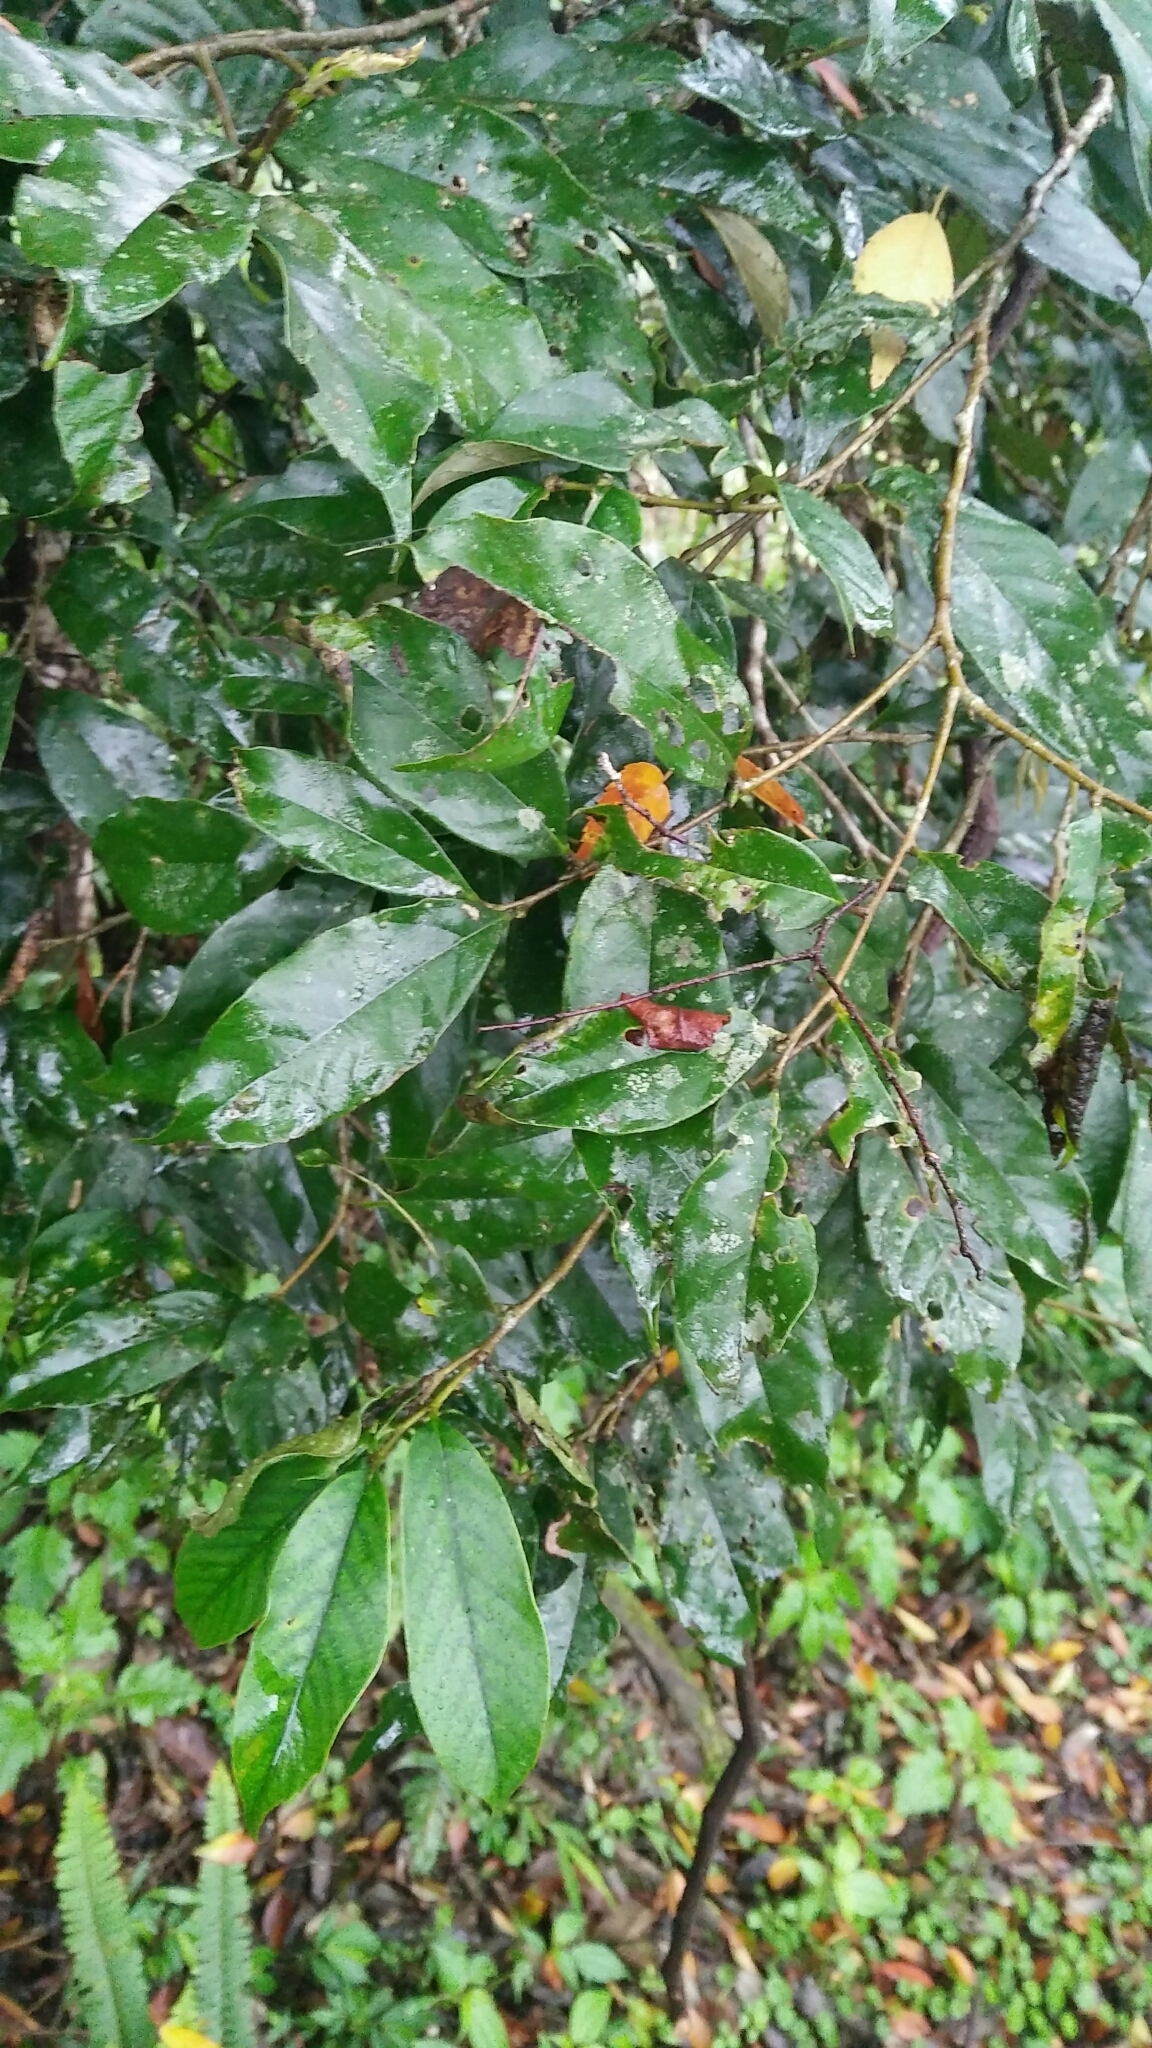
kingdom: Plantae
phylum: Tracheophyta
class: Magnoliopsida
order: Fagales
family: Fagaceae
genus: Castanopsis
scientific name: Castanopsis faberi
